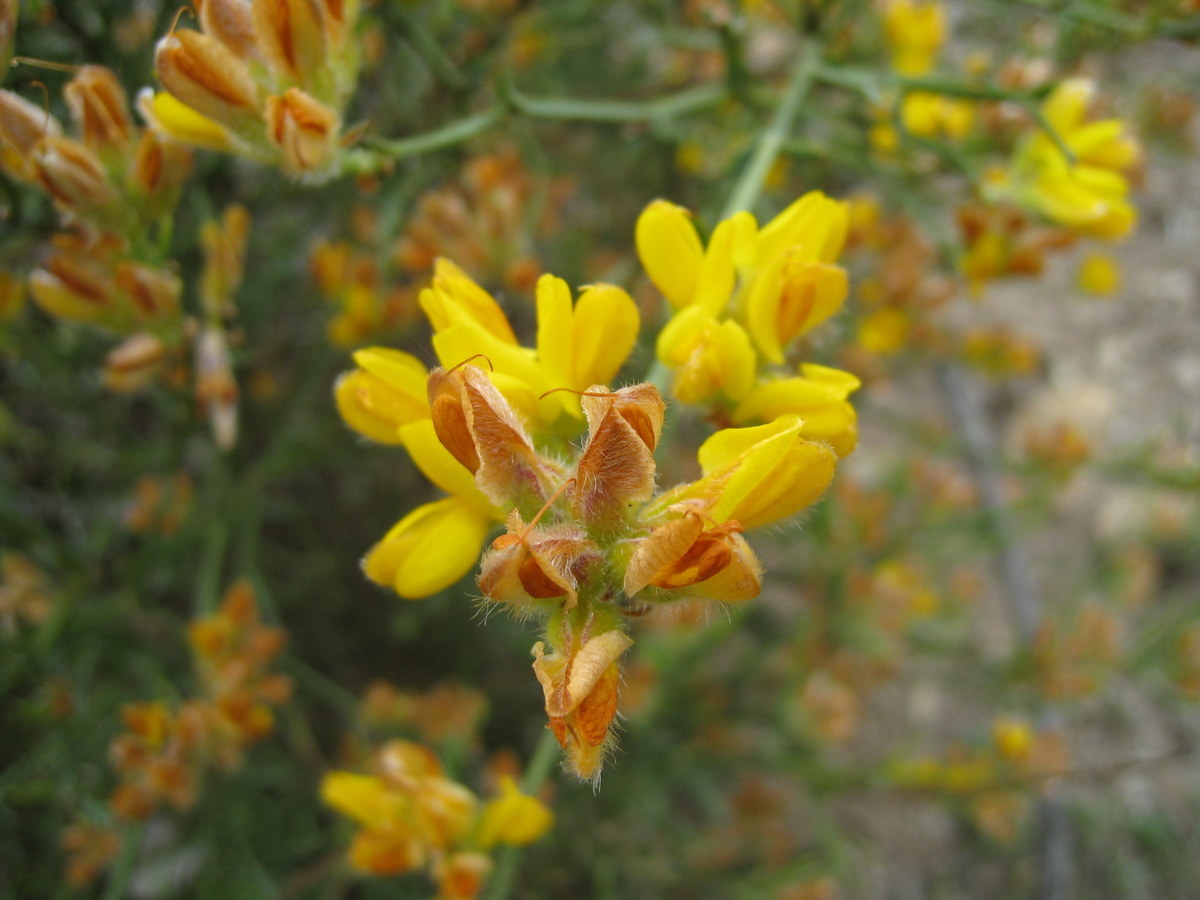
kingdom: Plantae
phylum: Tracheophyta
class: Magnoliopsida
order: Fabales
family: Fabaceae
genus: Genista
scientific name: Genista tridentata
